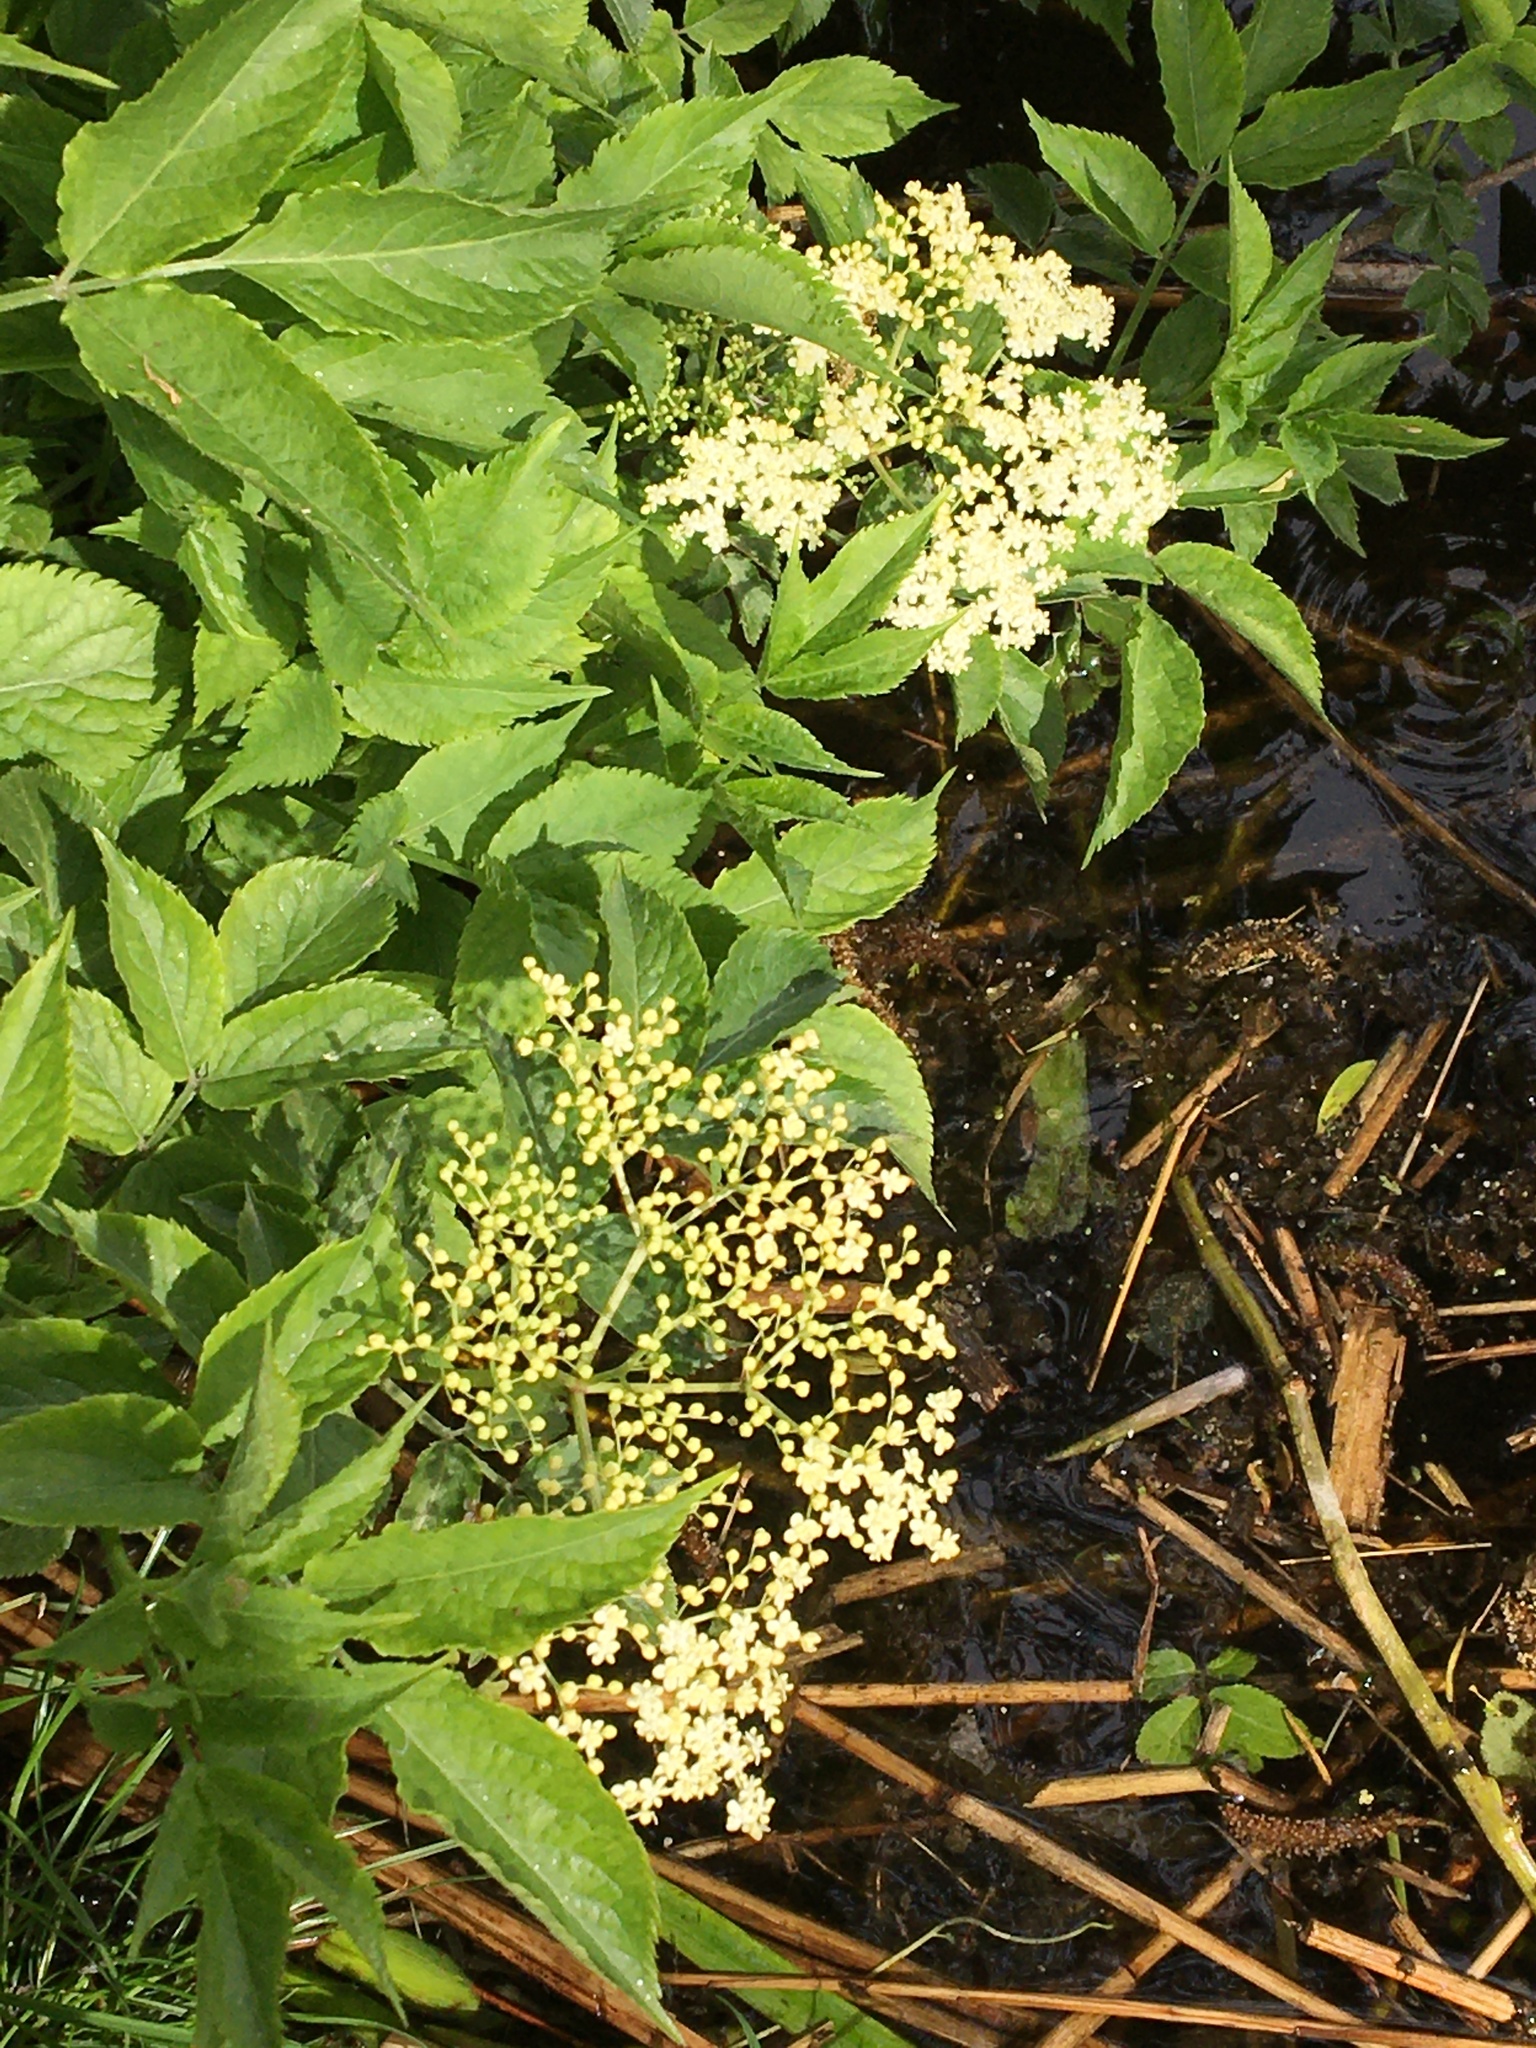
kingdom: Plantae
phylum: Tracheophyta
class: Magnoliopsida
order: Dipsacales
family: Viburnaceae
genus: Sambucus
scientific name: Sambucus nigra
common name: Elder
